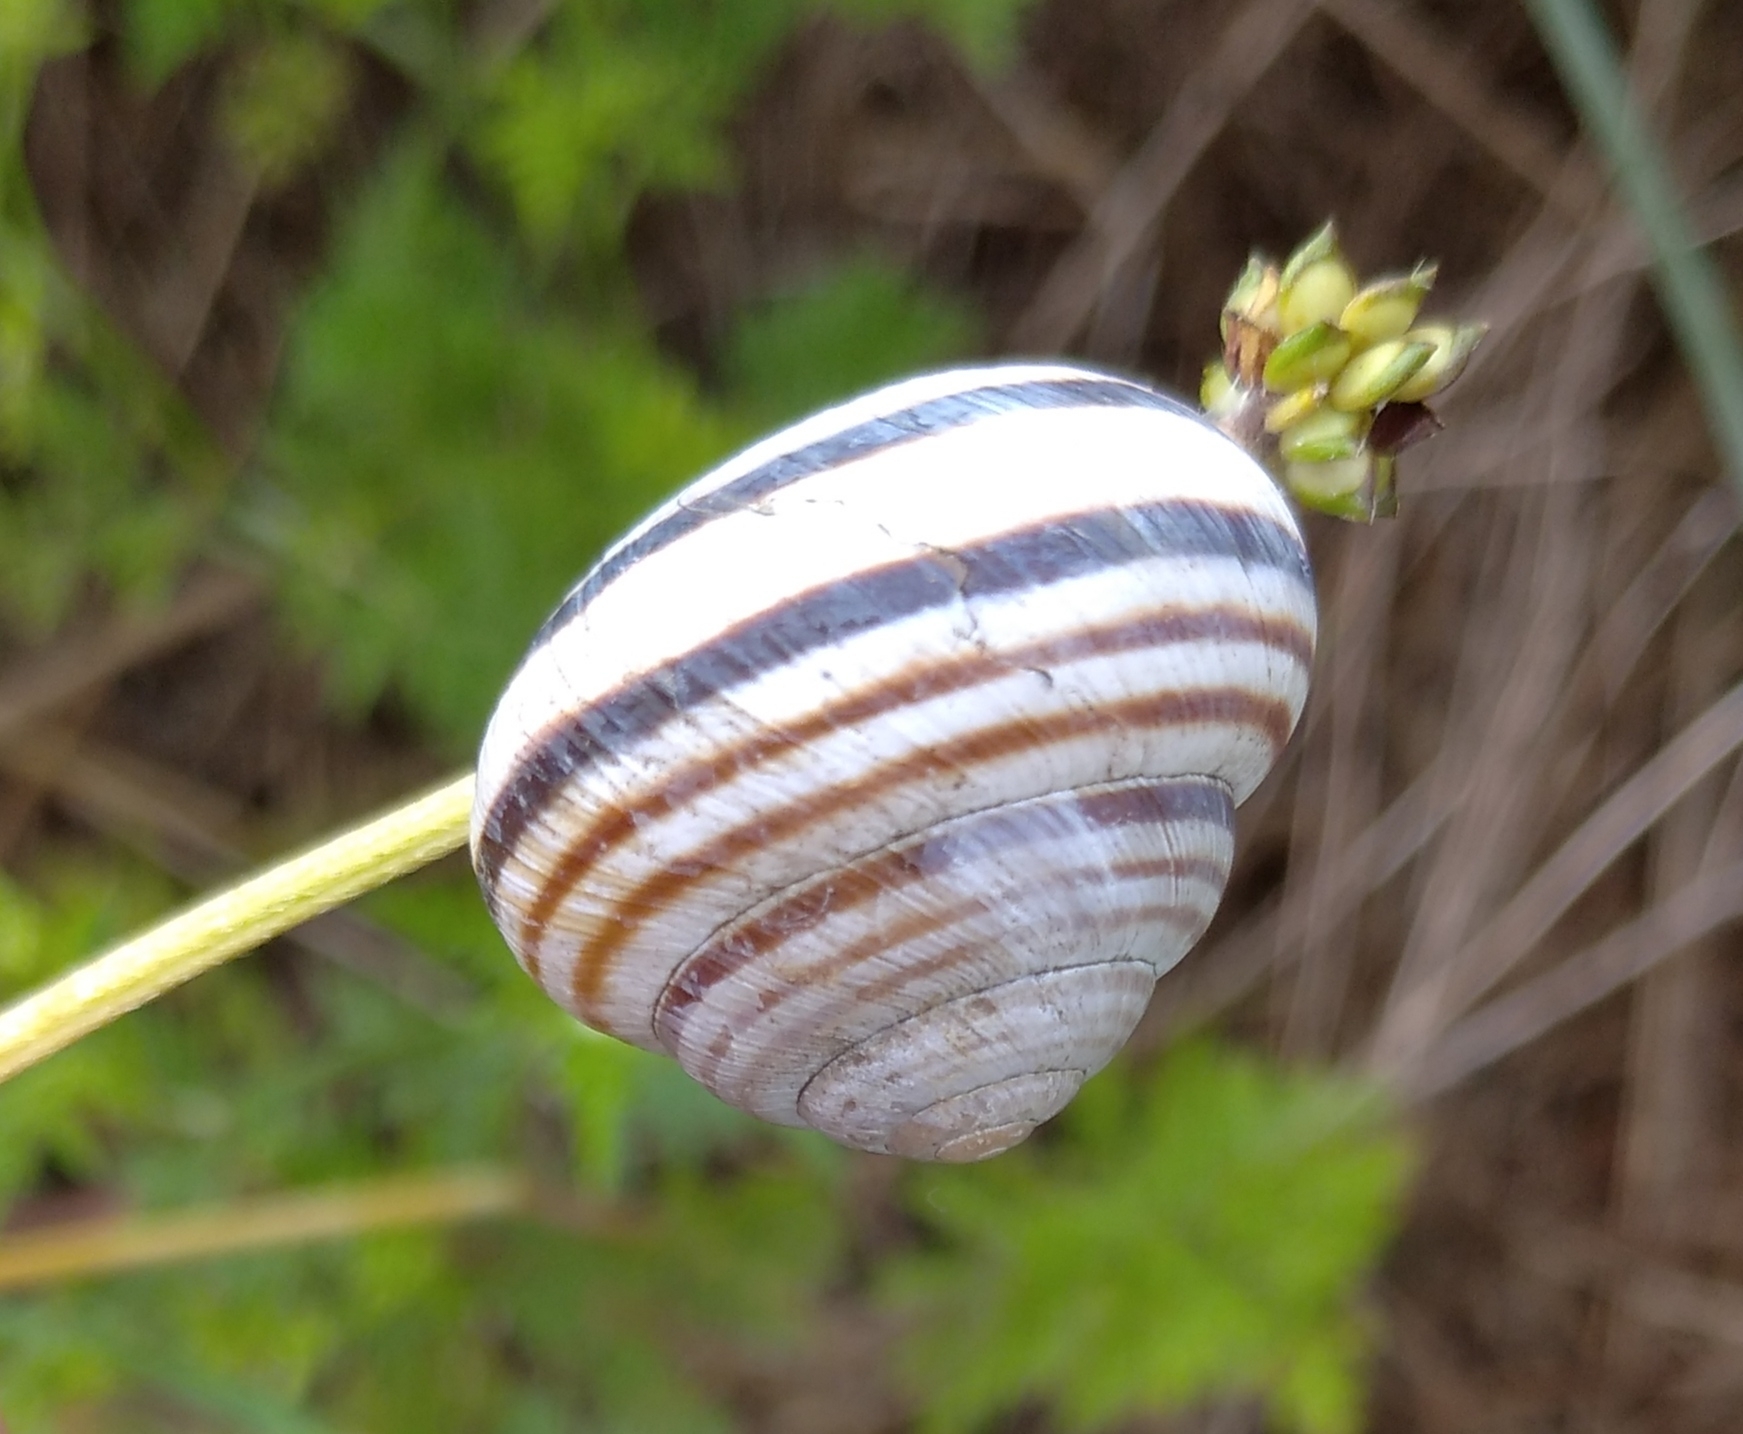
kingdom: Animalia
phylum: Mollusca
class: Gastropoda
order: Stylommatophora
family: Helicidae
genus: Caucasotachea
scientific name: Caucasotachea vindobonensis
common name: European helicid land snail
